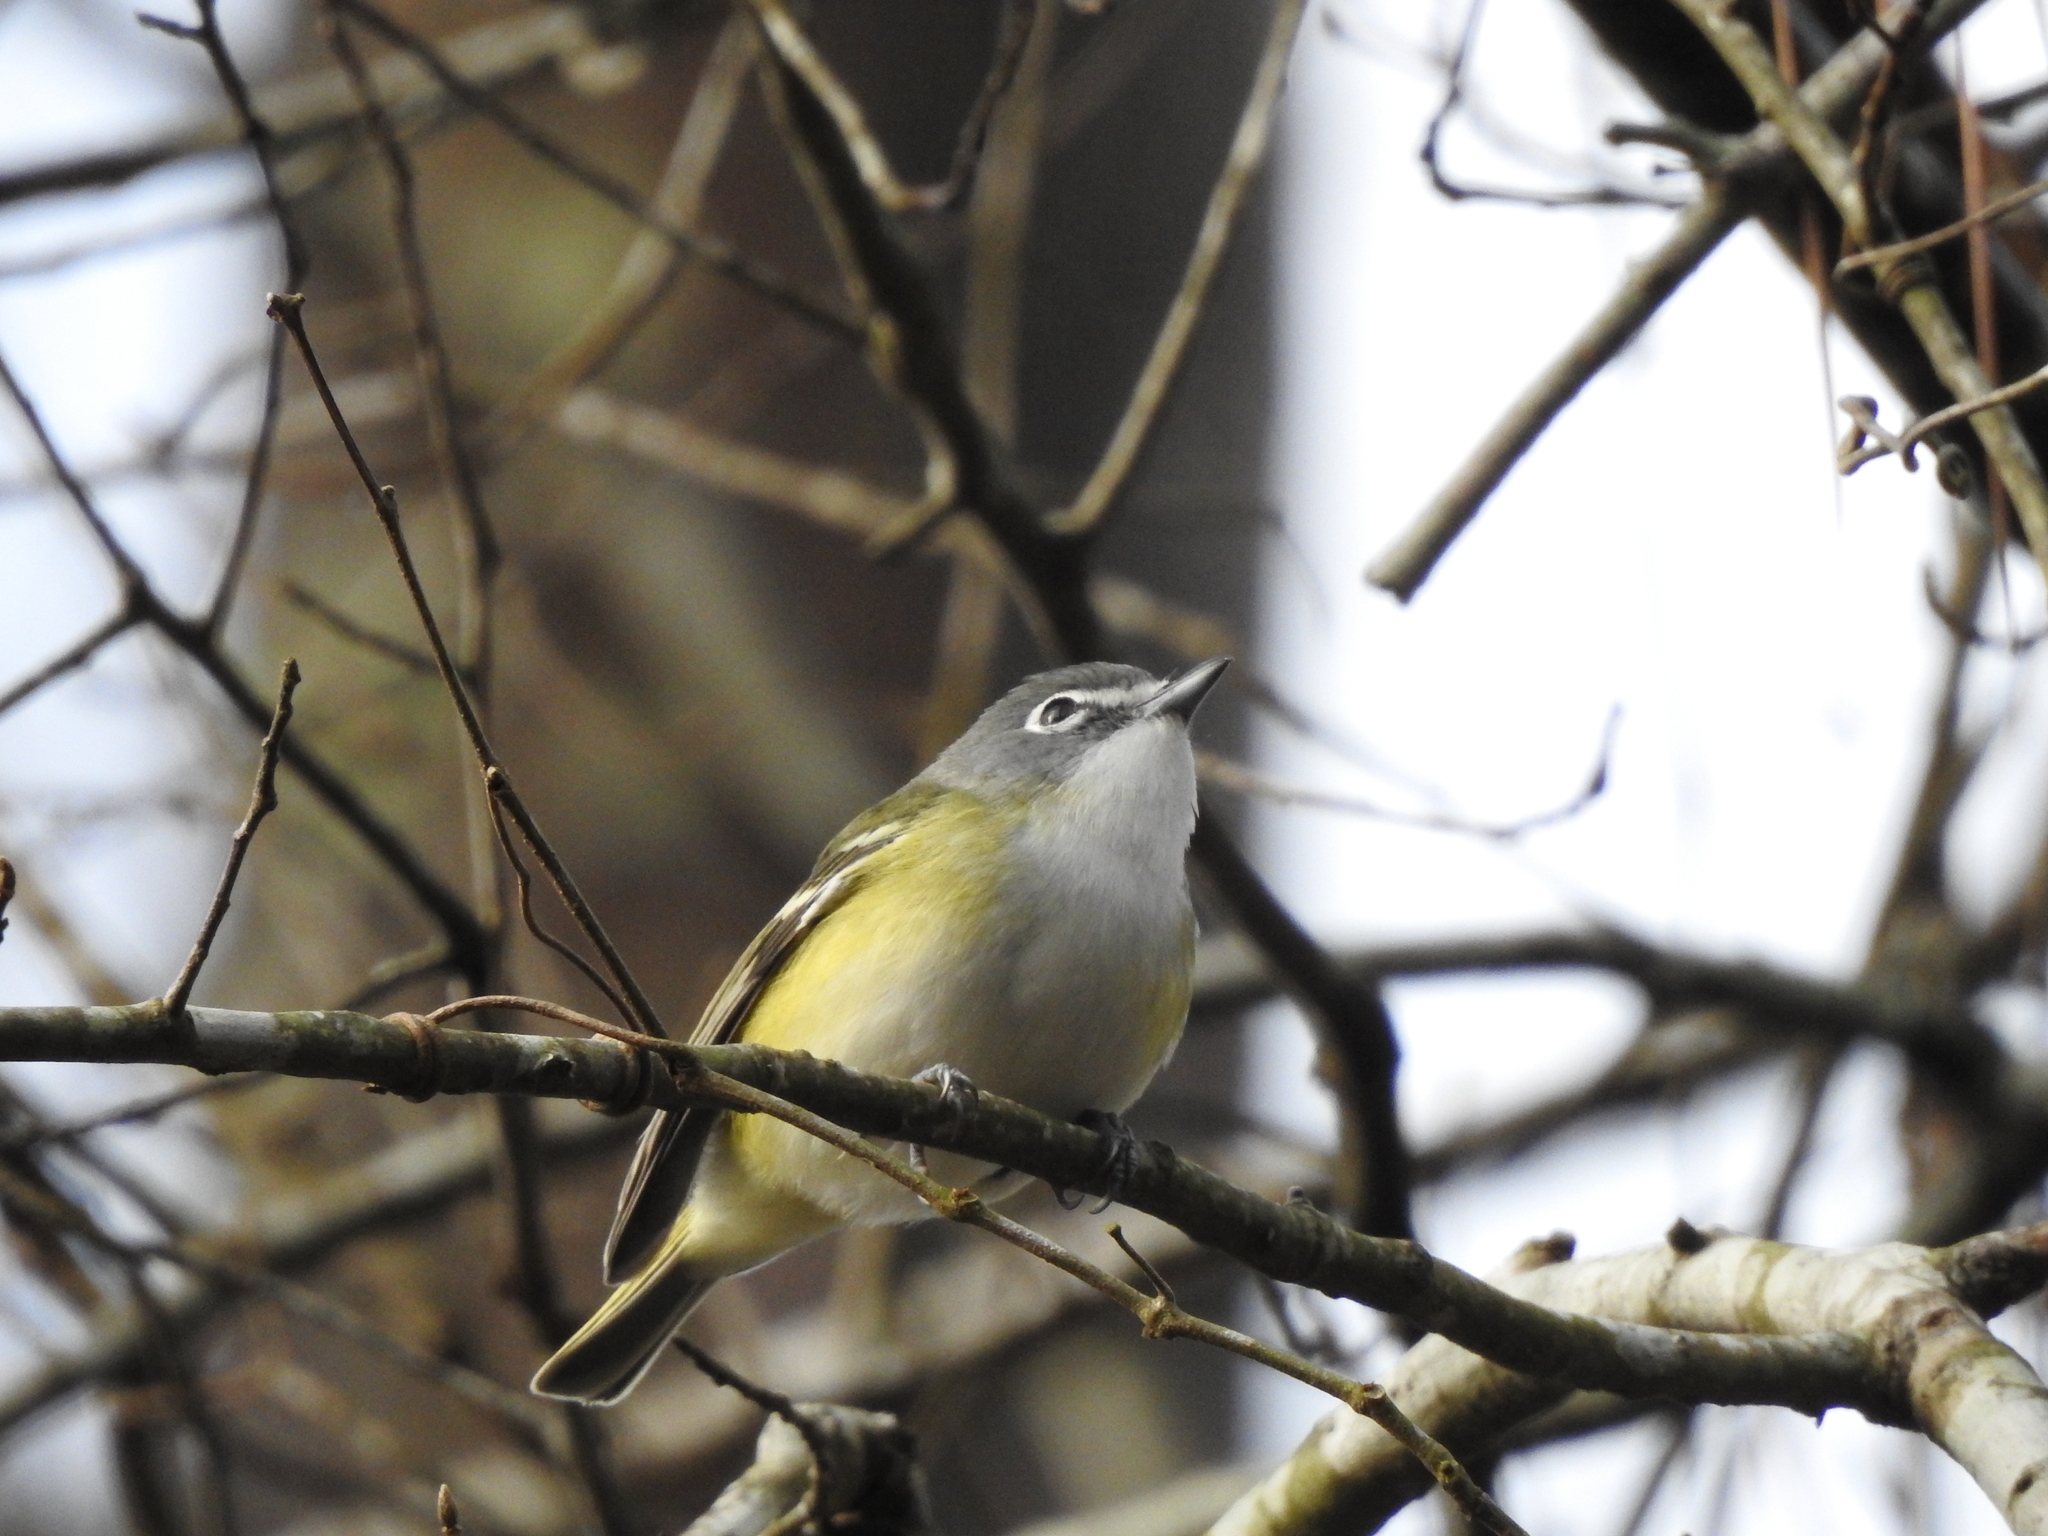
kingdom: Animalia
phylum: Chordata
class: Aves
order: Passeriformes
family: Vireonidae
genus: Vireo
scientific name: Vireo solitarius
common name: Blue-headed vireo
